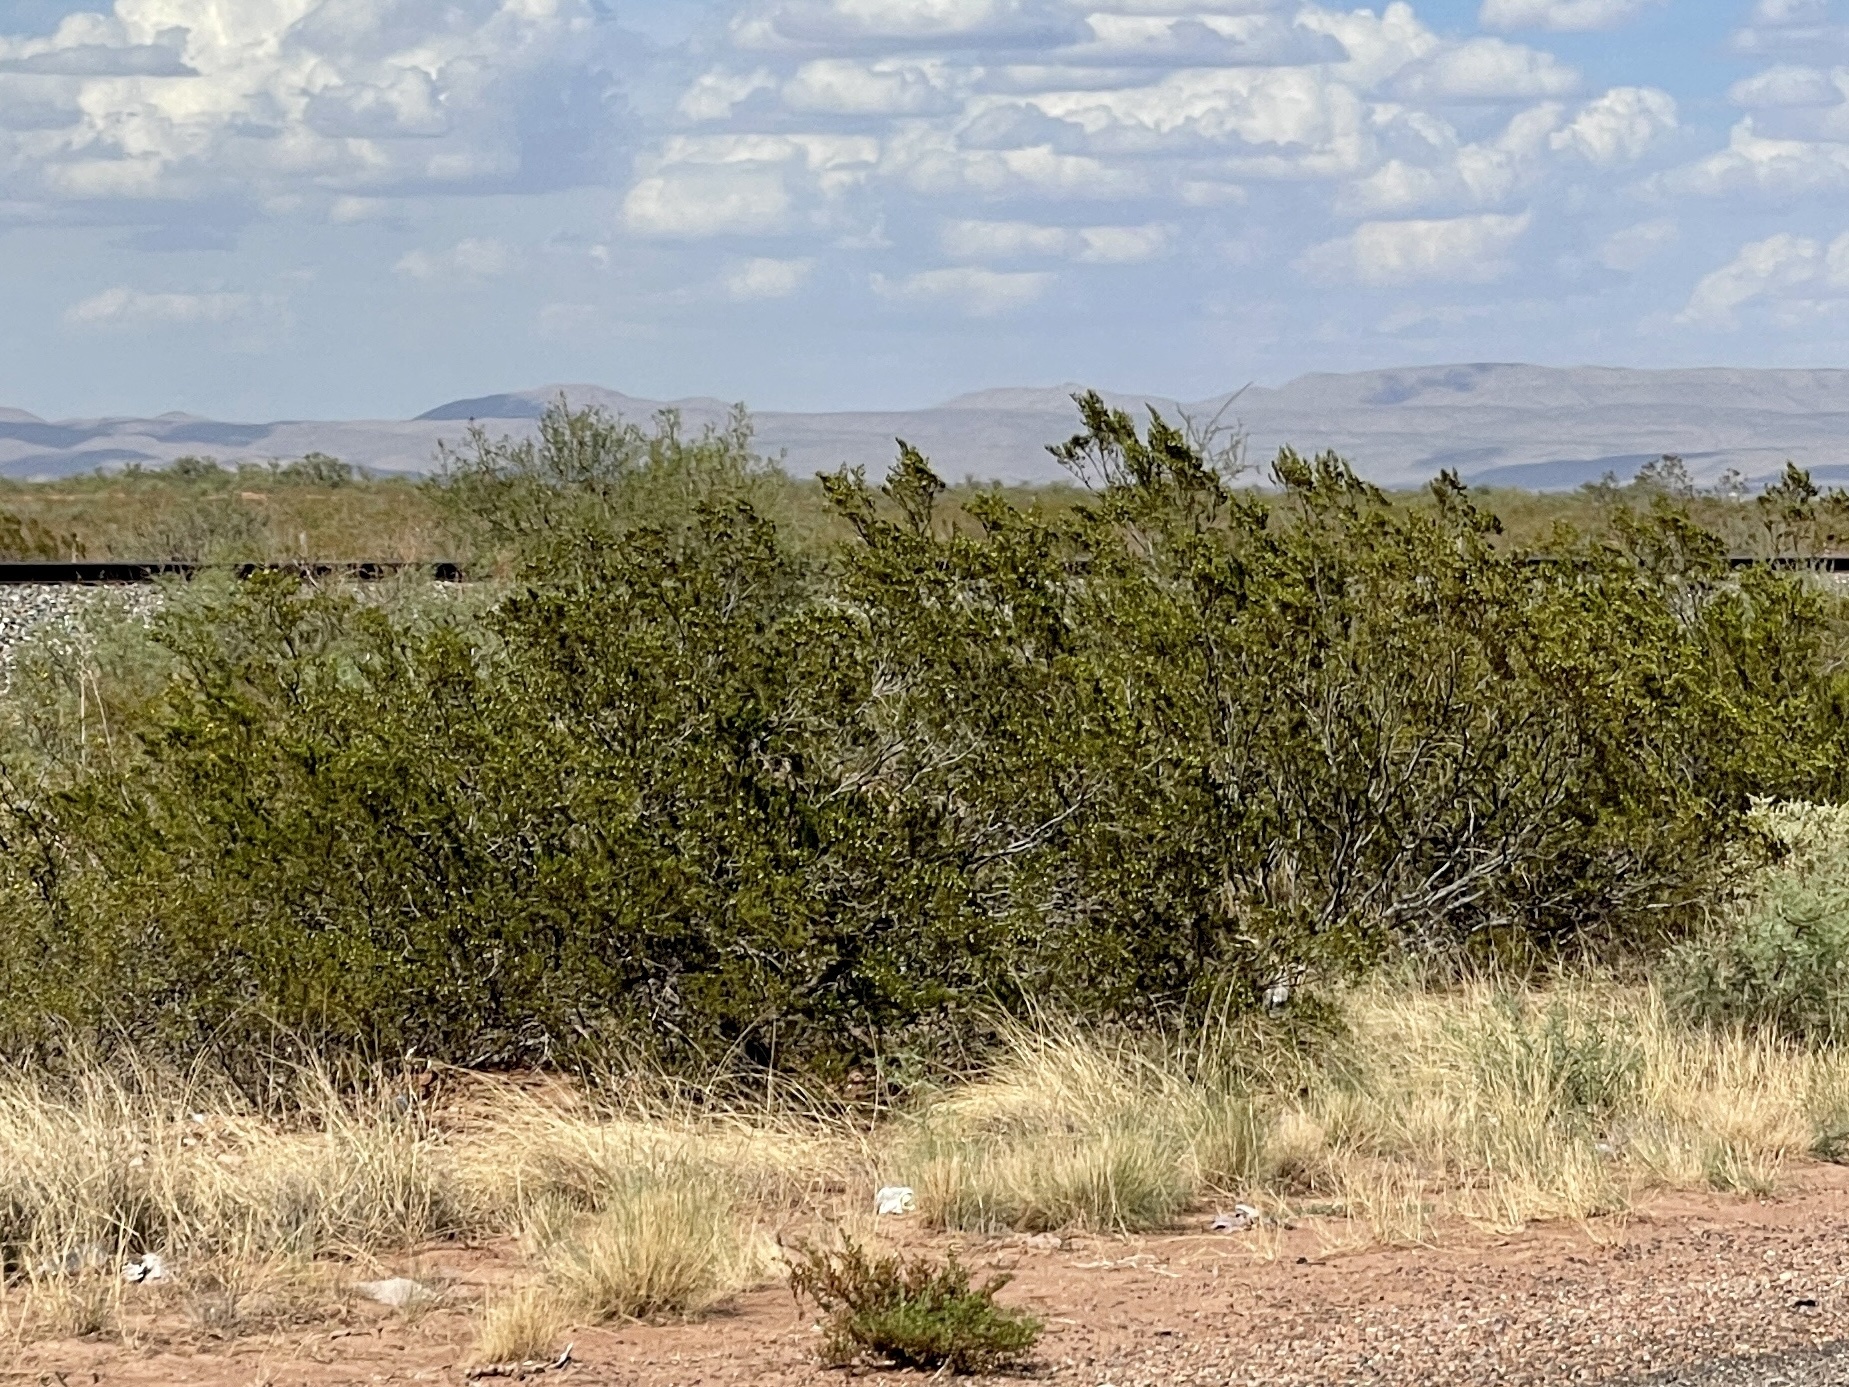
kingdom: Plantae
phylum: Tracheophyta
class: Magnoliopsida
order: Zygophyllales
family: Zygophyllaceae
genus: Larrea
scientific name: Larrea tridentata
